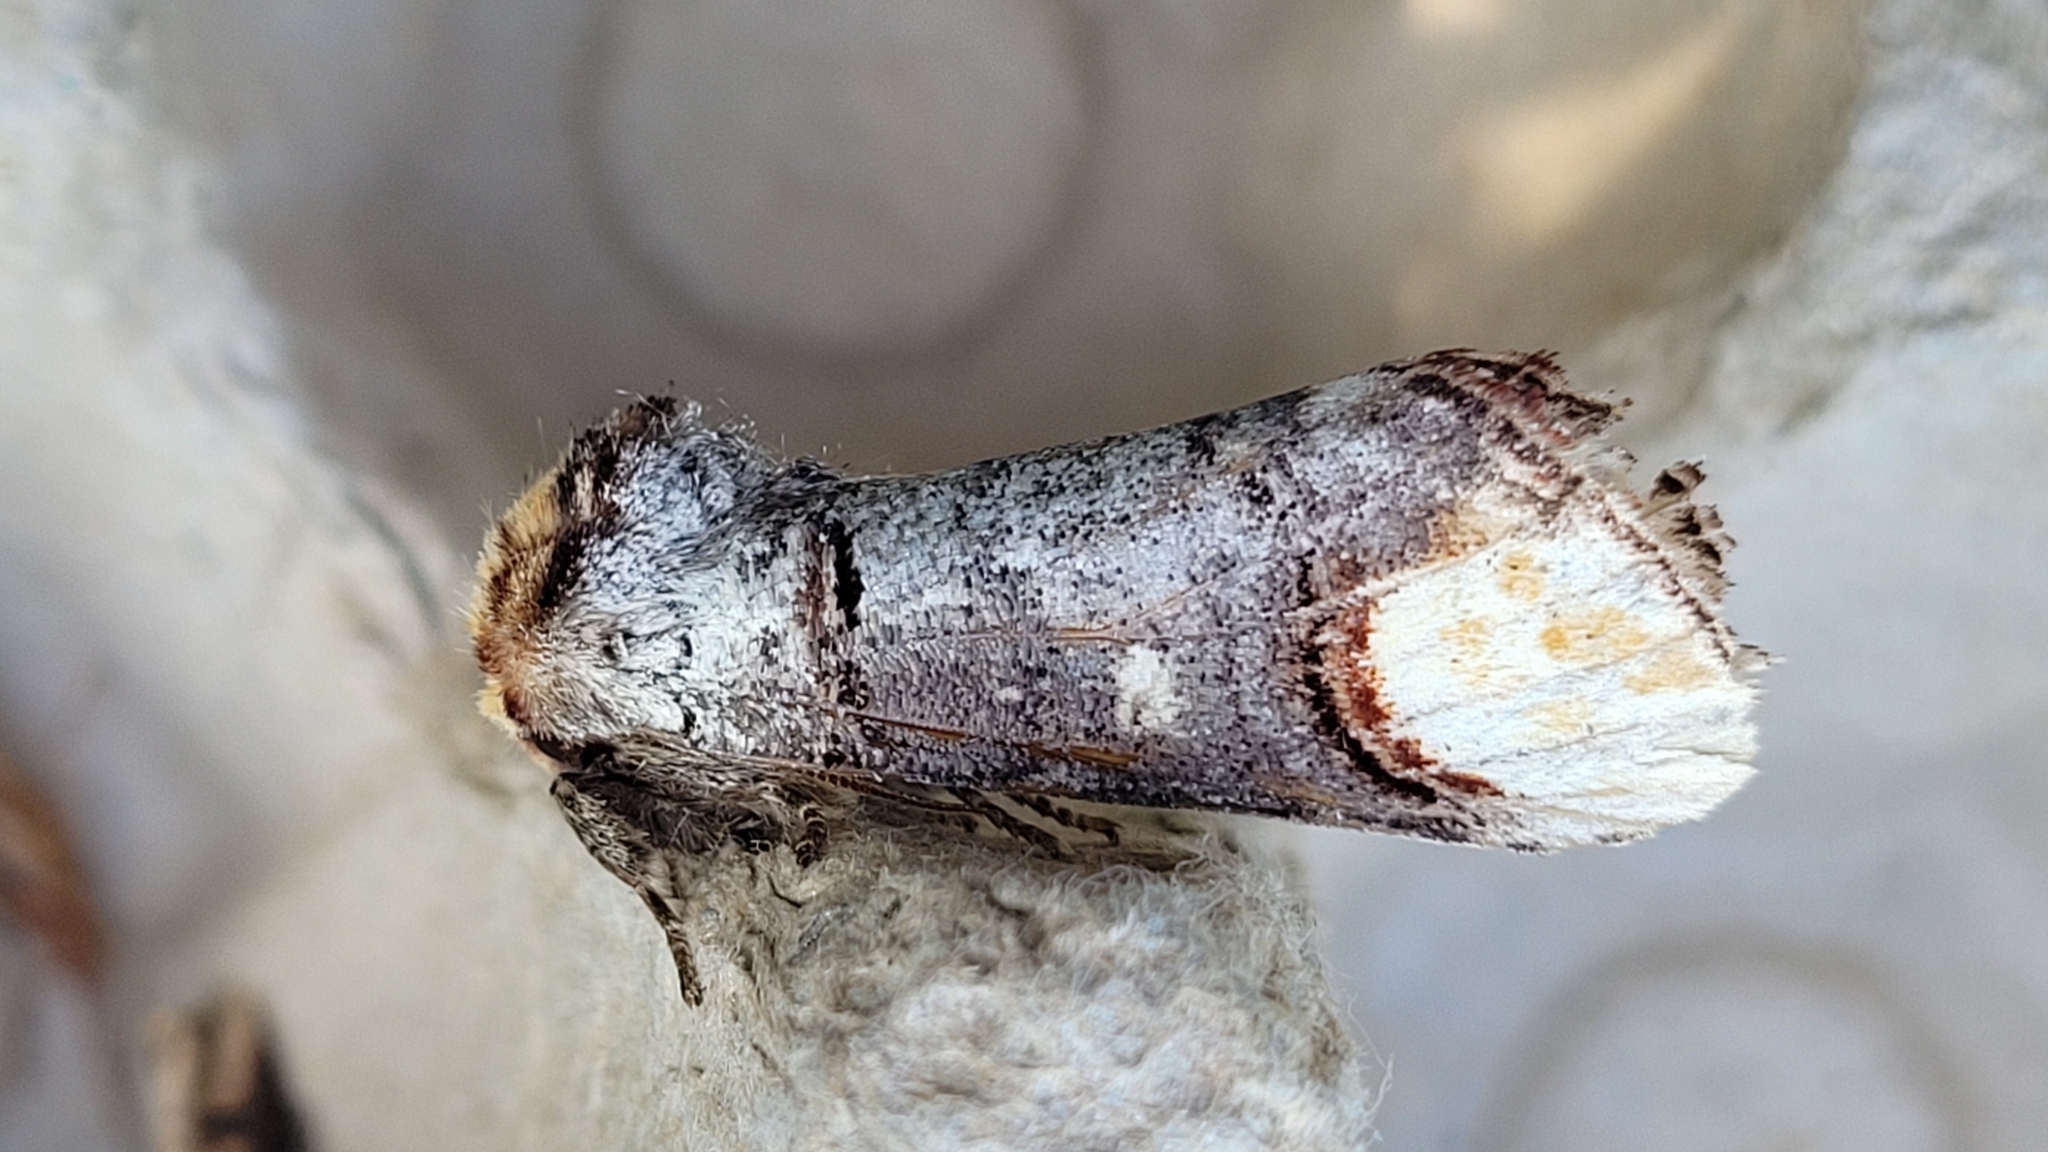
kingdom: Animalia
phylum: Arthropoda
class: Insecta
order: Lepidoptera
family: Notodontidae
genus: Phalera
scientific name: Phalera bucephala
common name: Buff-tip
